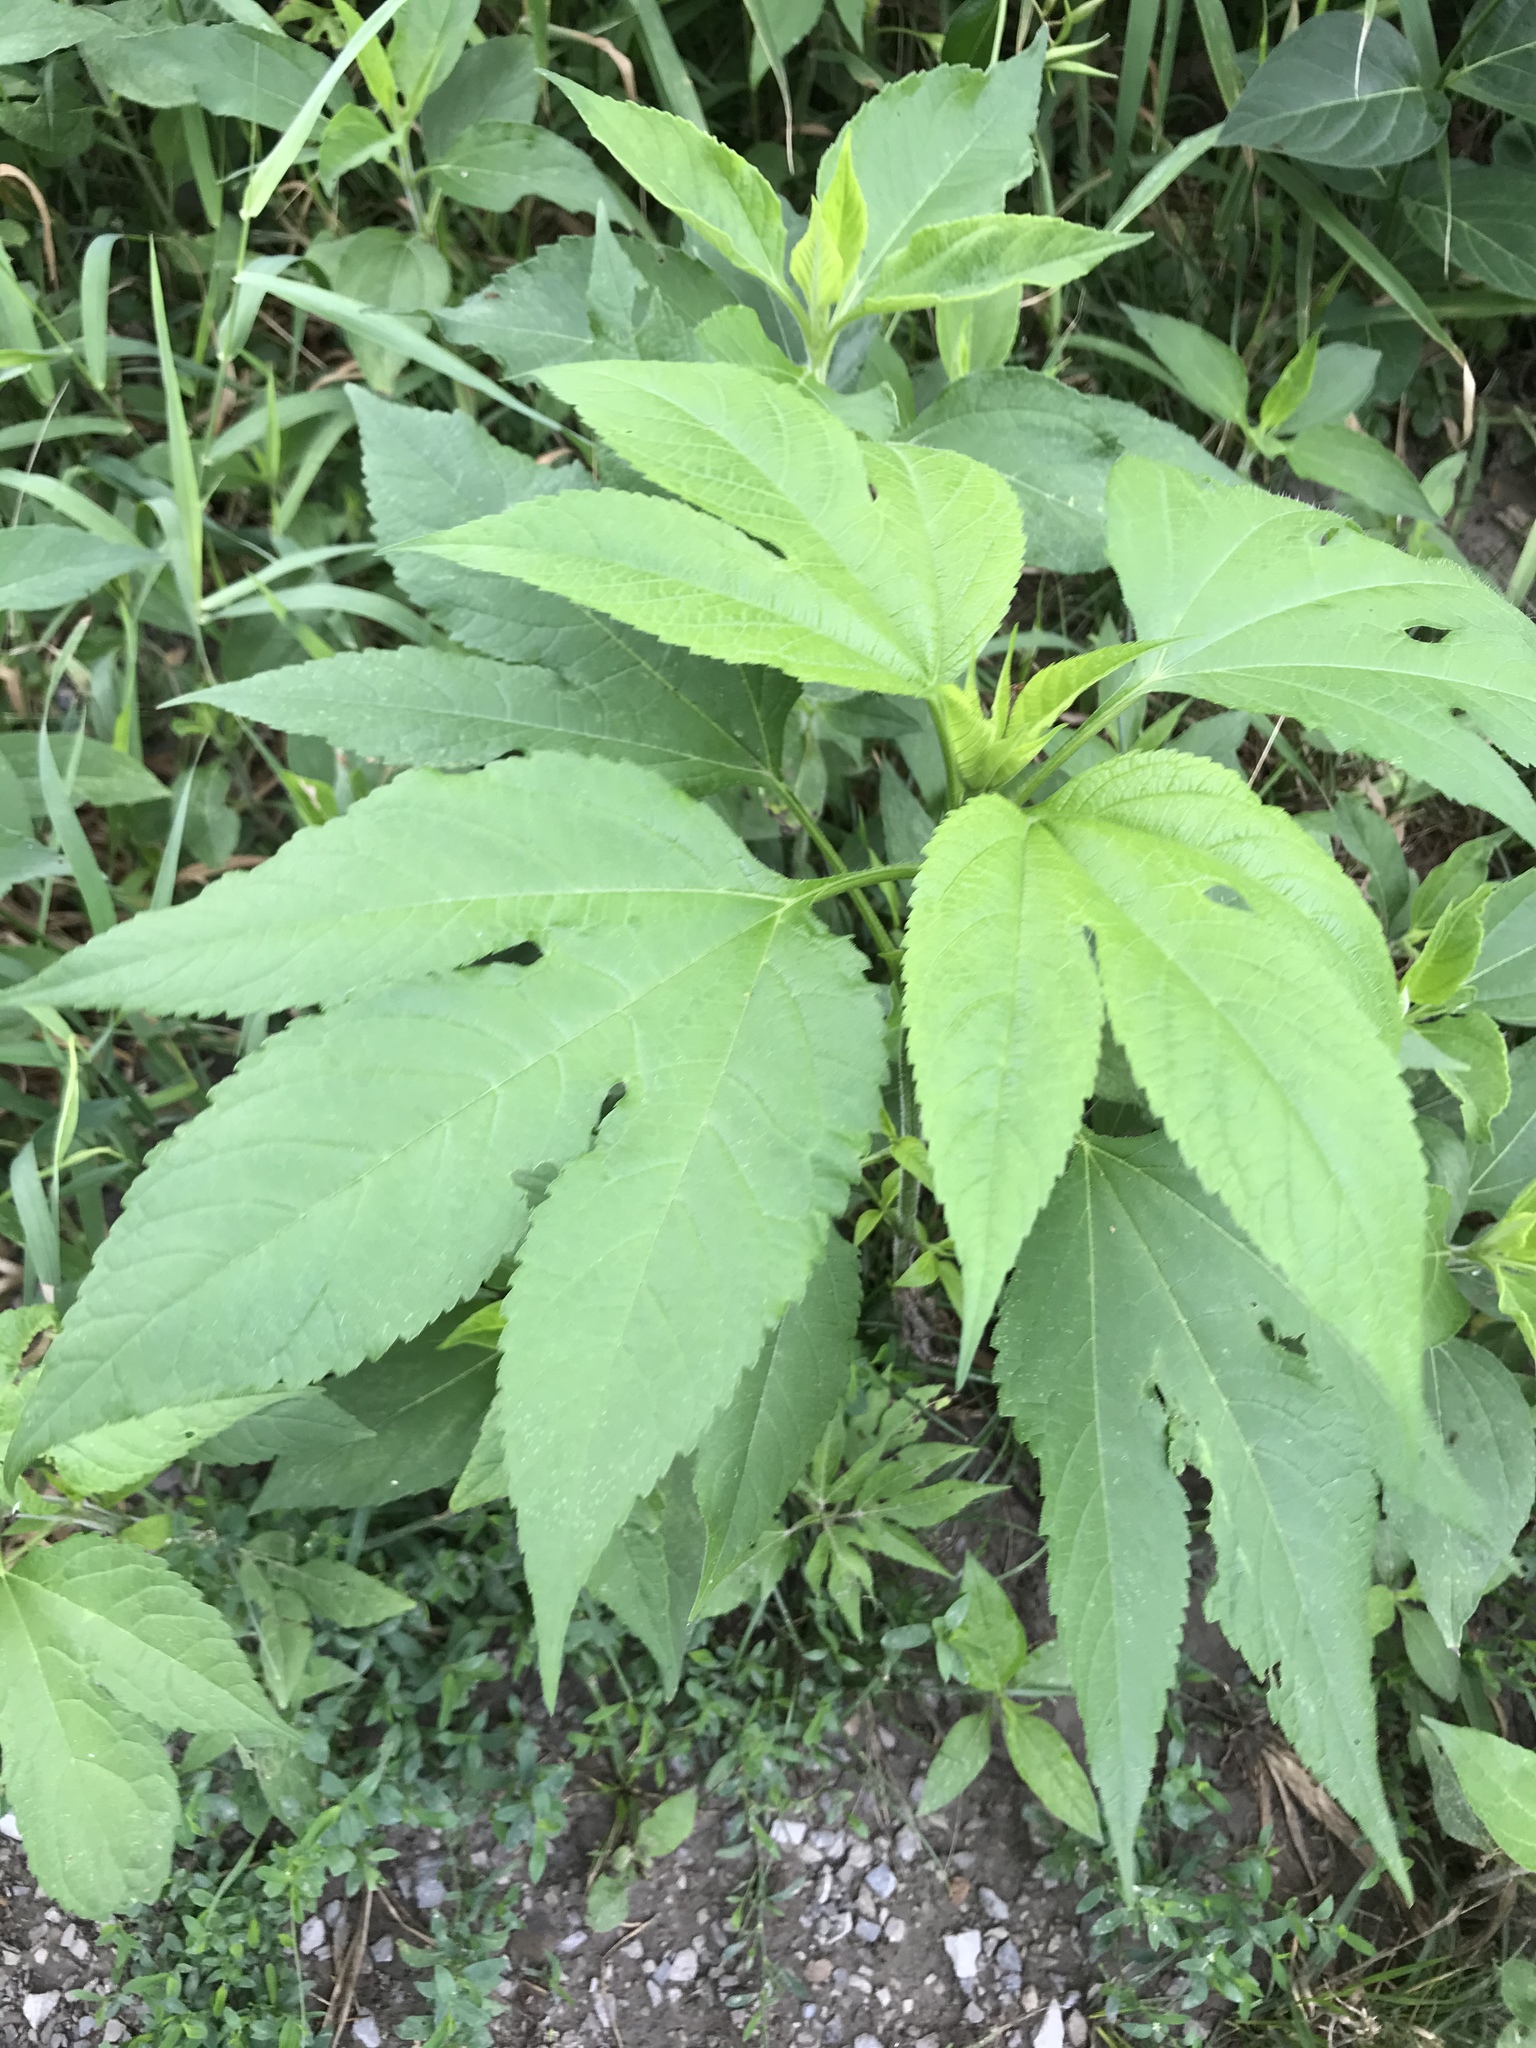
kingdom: Plantae
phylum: Tracheophyta
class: Magnoliopsida
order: Asterales
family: Asteraceae
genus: Ambrosia
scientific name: Ambrosia trifida
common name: Giant ragweed
